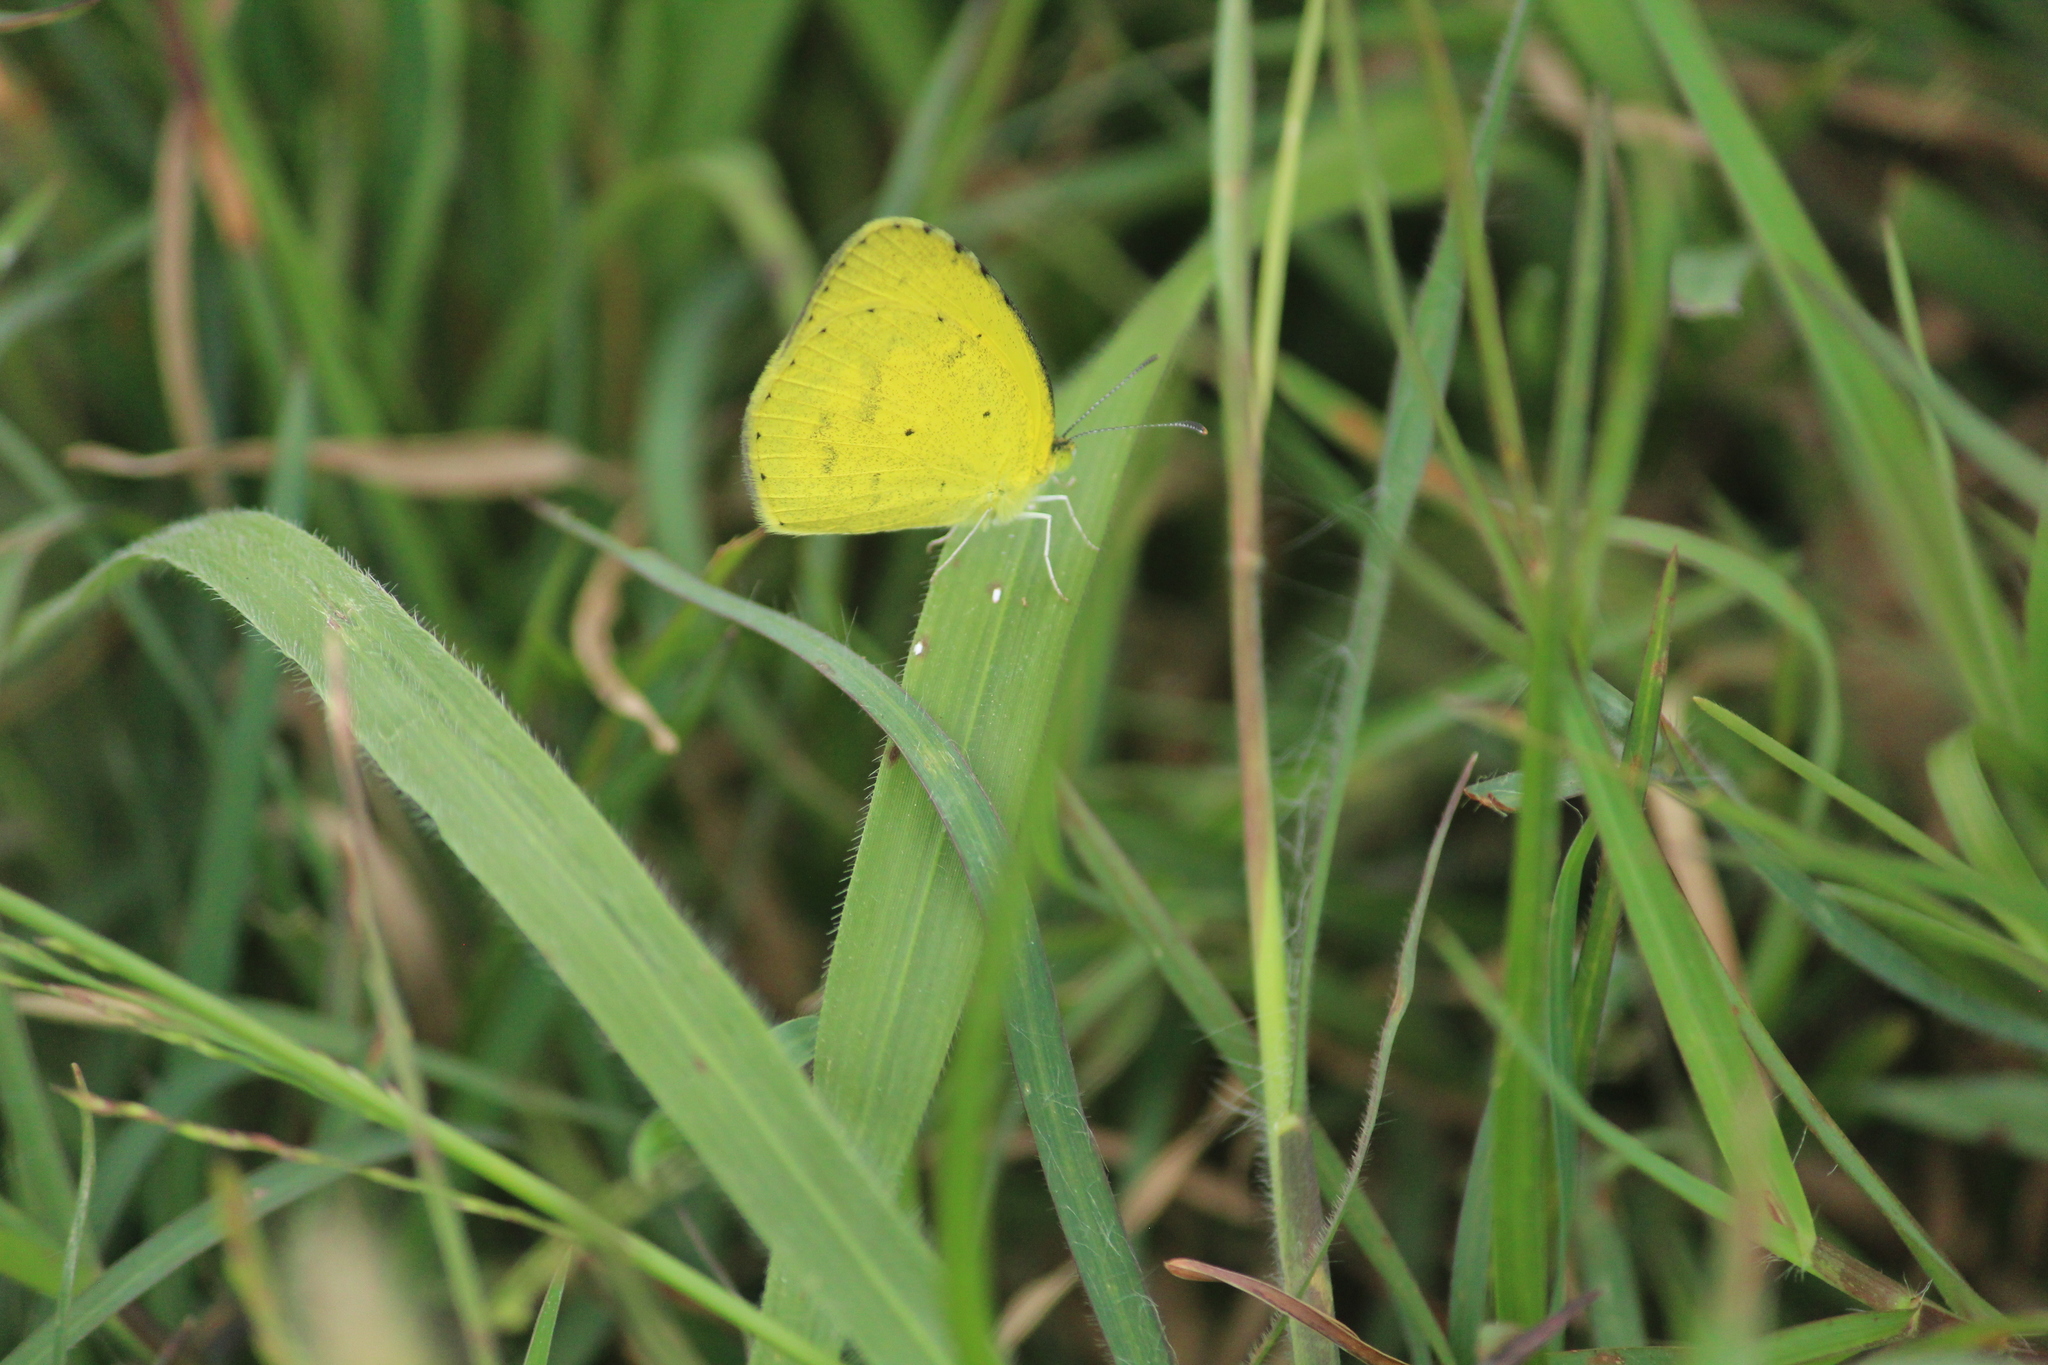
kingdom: Animalia
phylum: Arthropoda
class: Insecta
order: Lepidoptera
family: Pieridae
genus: Eurema
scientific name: Eurema brigitta
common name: Small grass yellow
